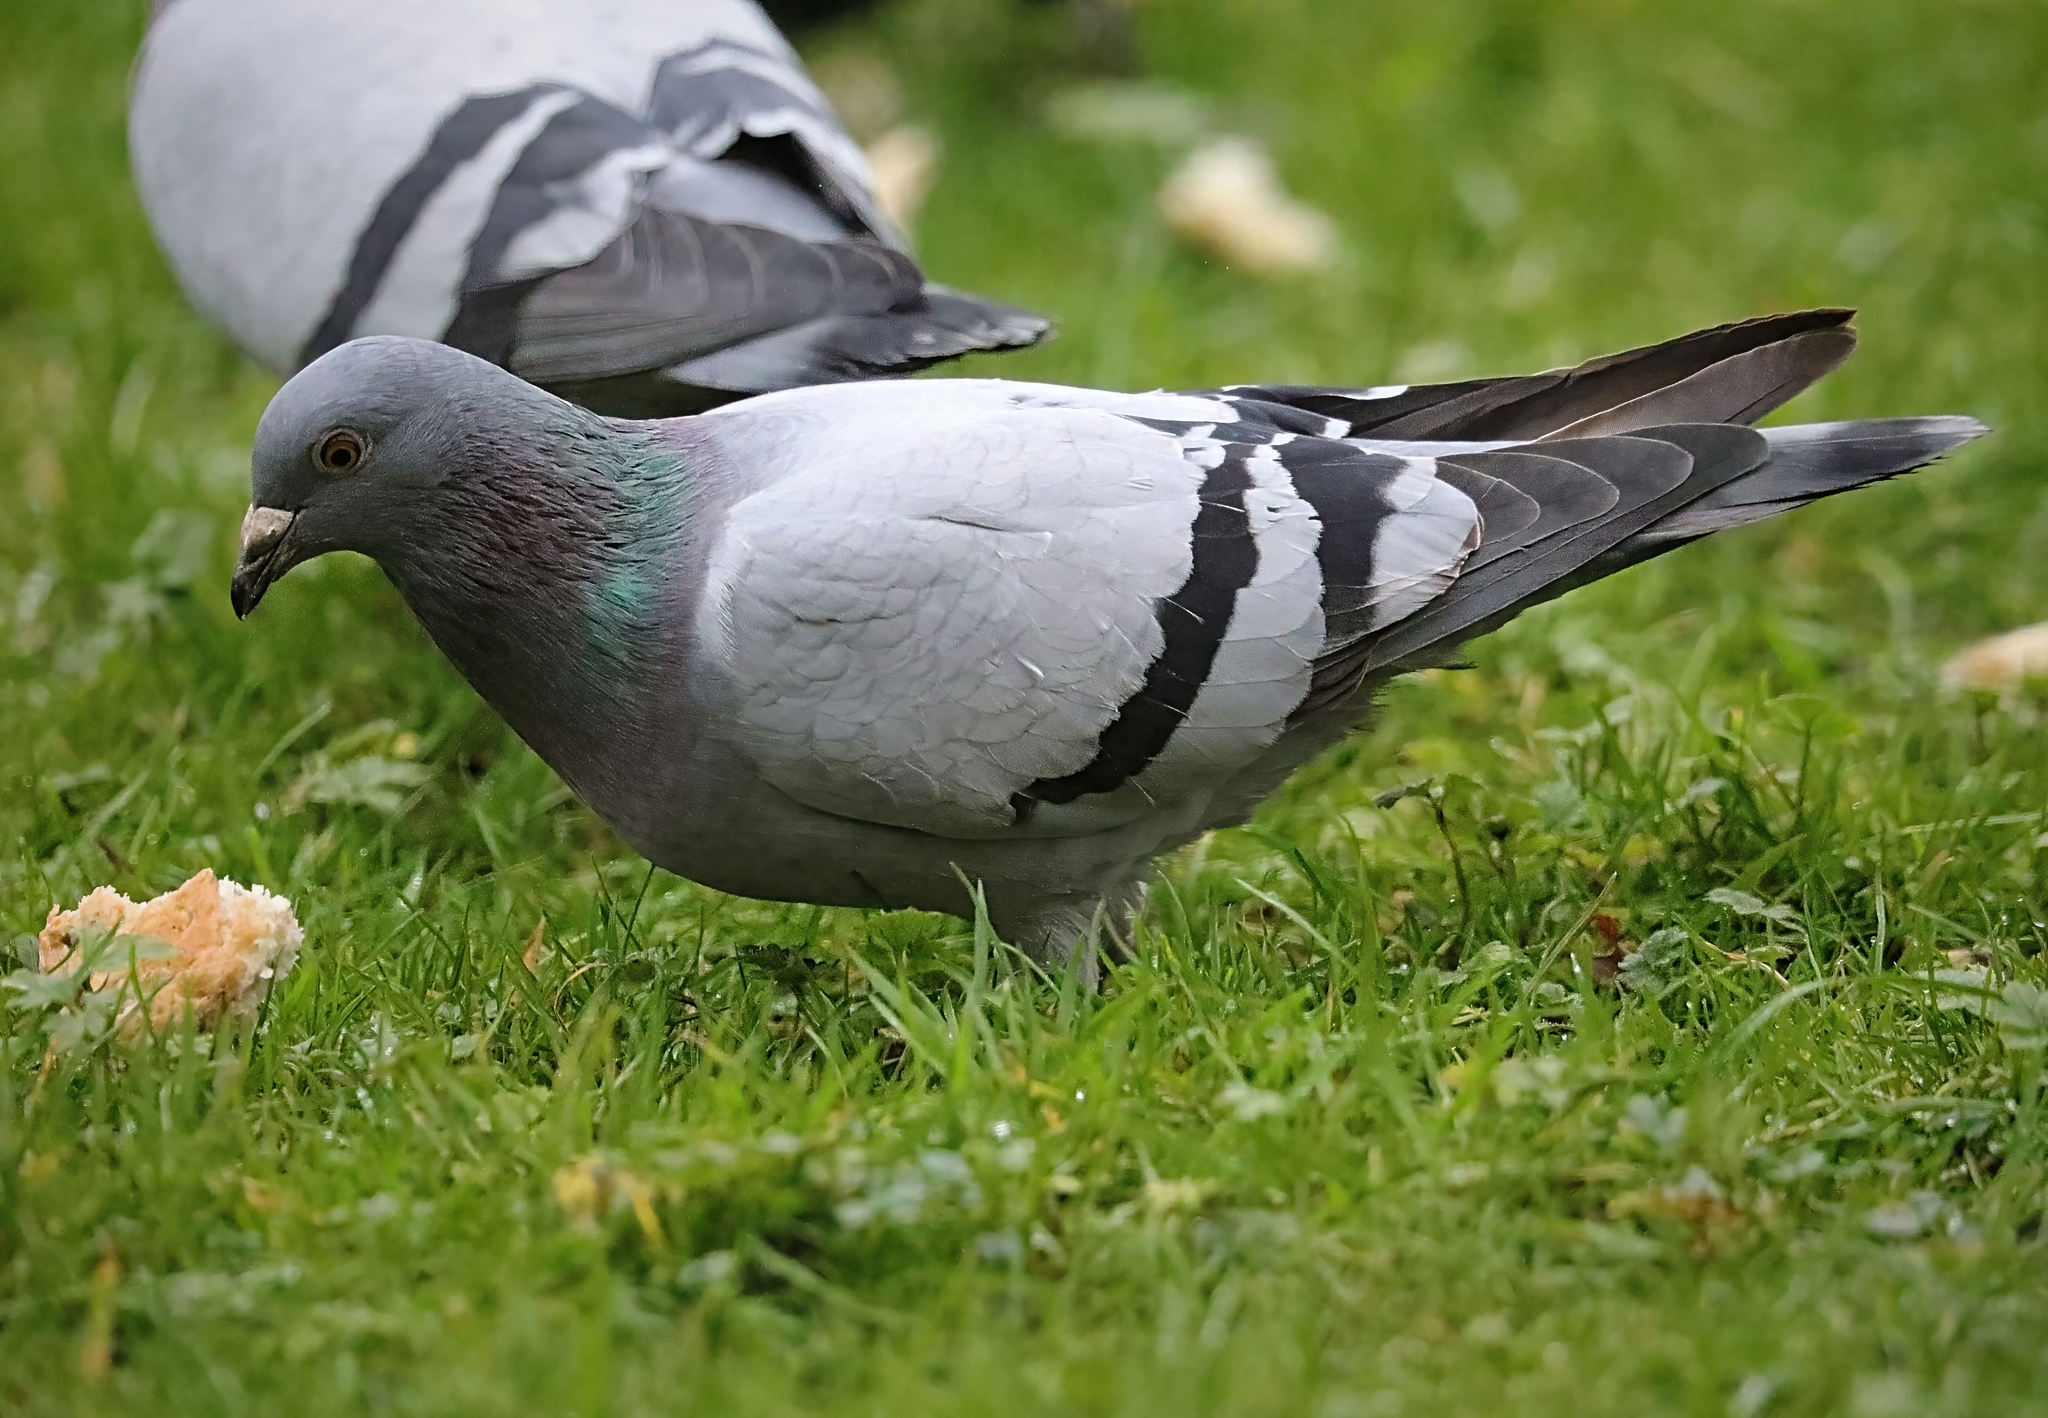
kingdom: Animalia
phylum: Chordata
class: Aves
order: Columbiformes
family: Columbidae
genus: Columba
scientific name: Columba livia
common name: Rock pigeon
